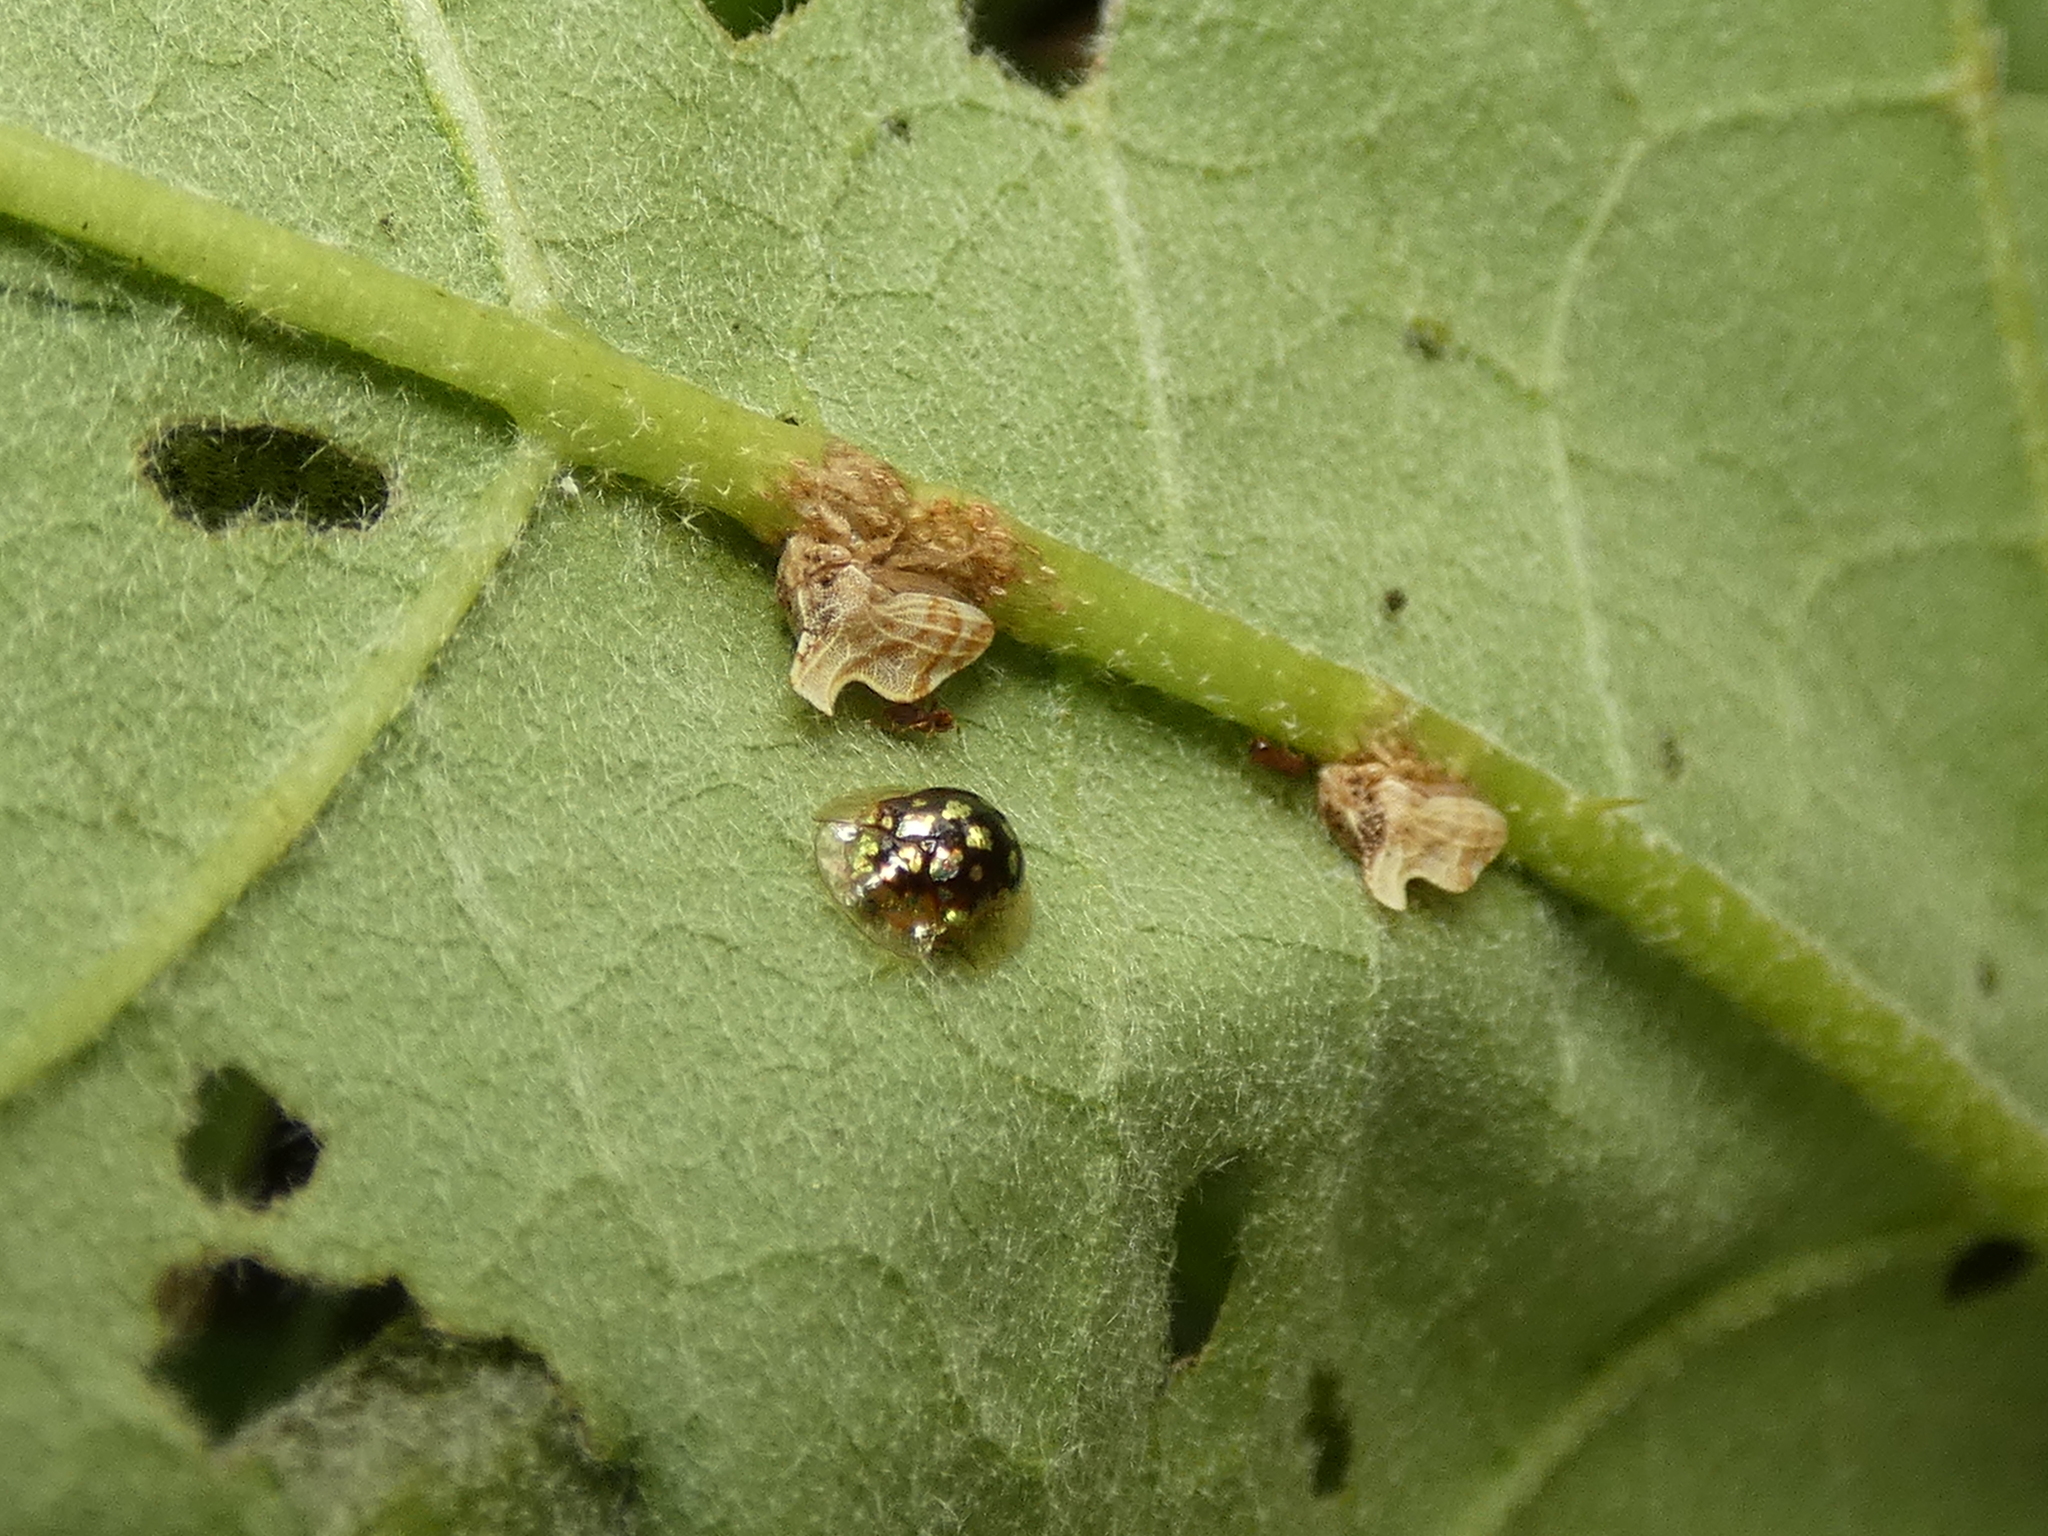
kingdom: Animalia
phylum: Arthropoda
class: Insecta
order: Coleoptera
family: Chrysomelidae
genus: Plagiometriona
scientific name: Plagiometriona microcera
